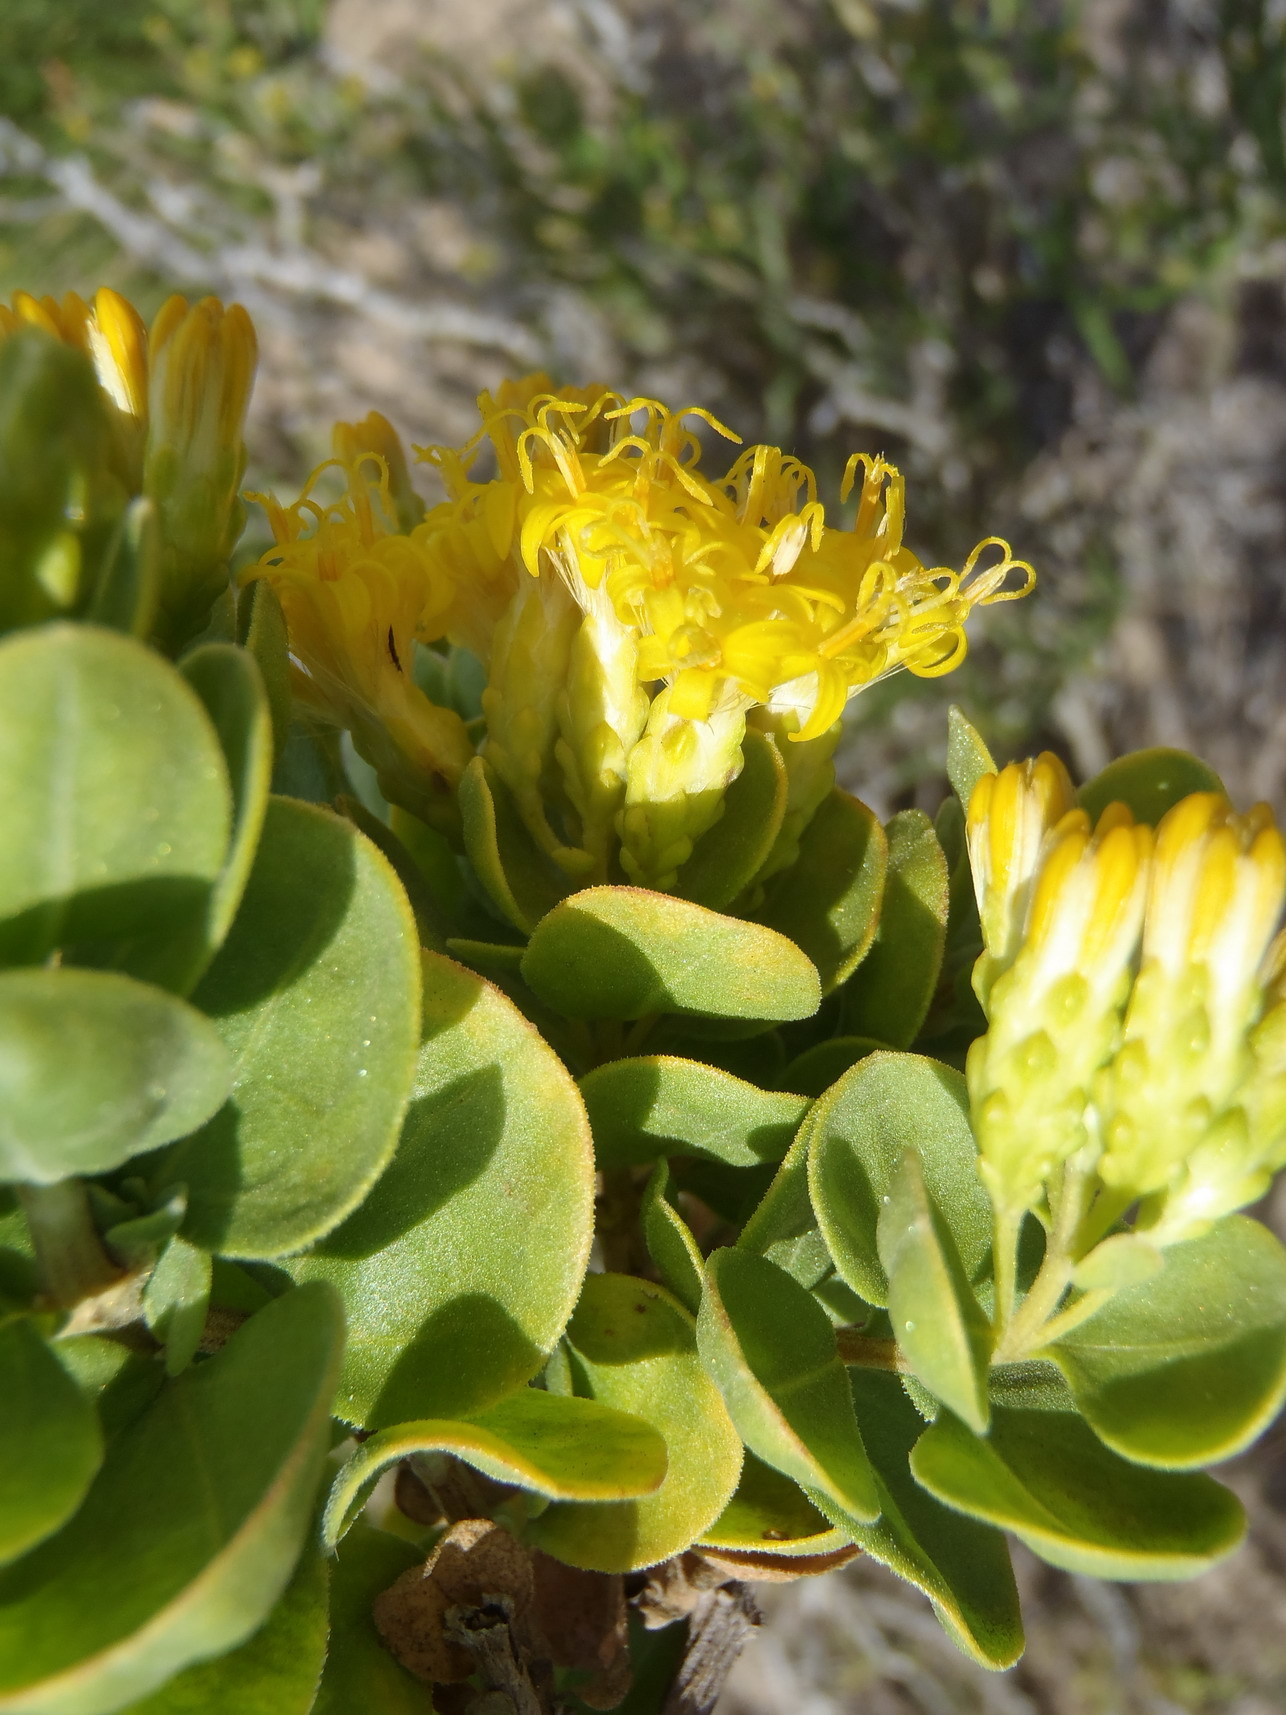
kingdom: Plantae
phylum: Tracheophyta
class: Magnoliopsida
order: Asterales
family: Asteraceae
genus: Pteronia
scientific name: Pteronia divaricata
